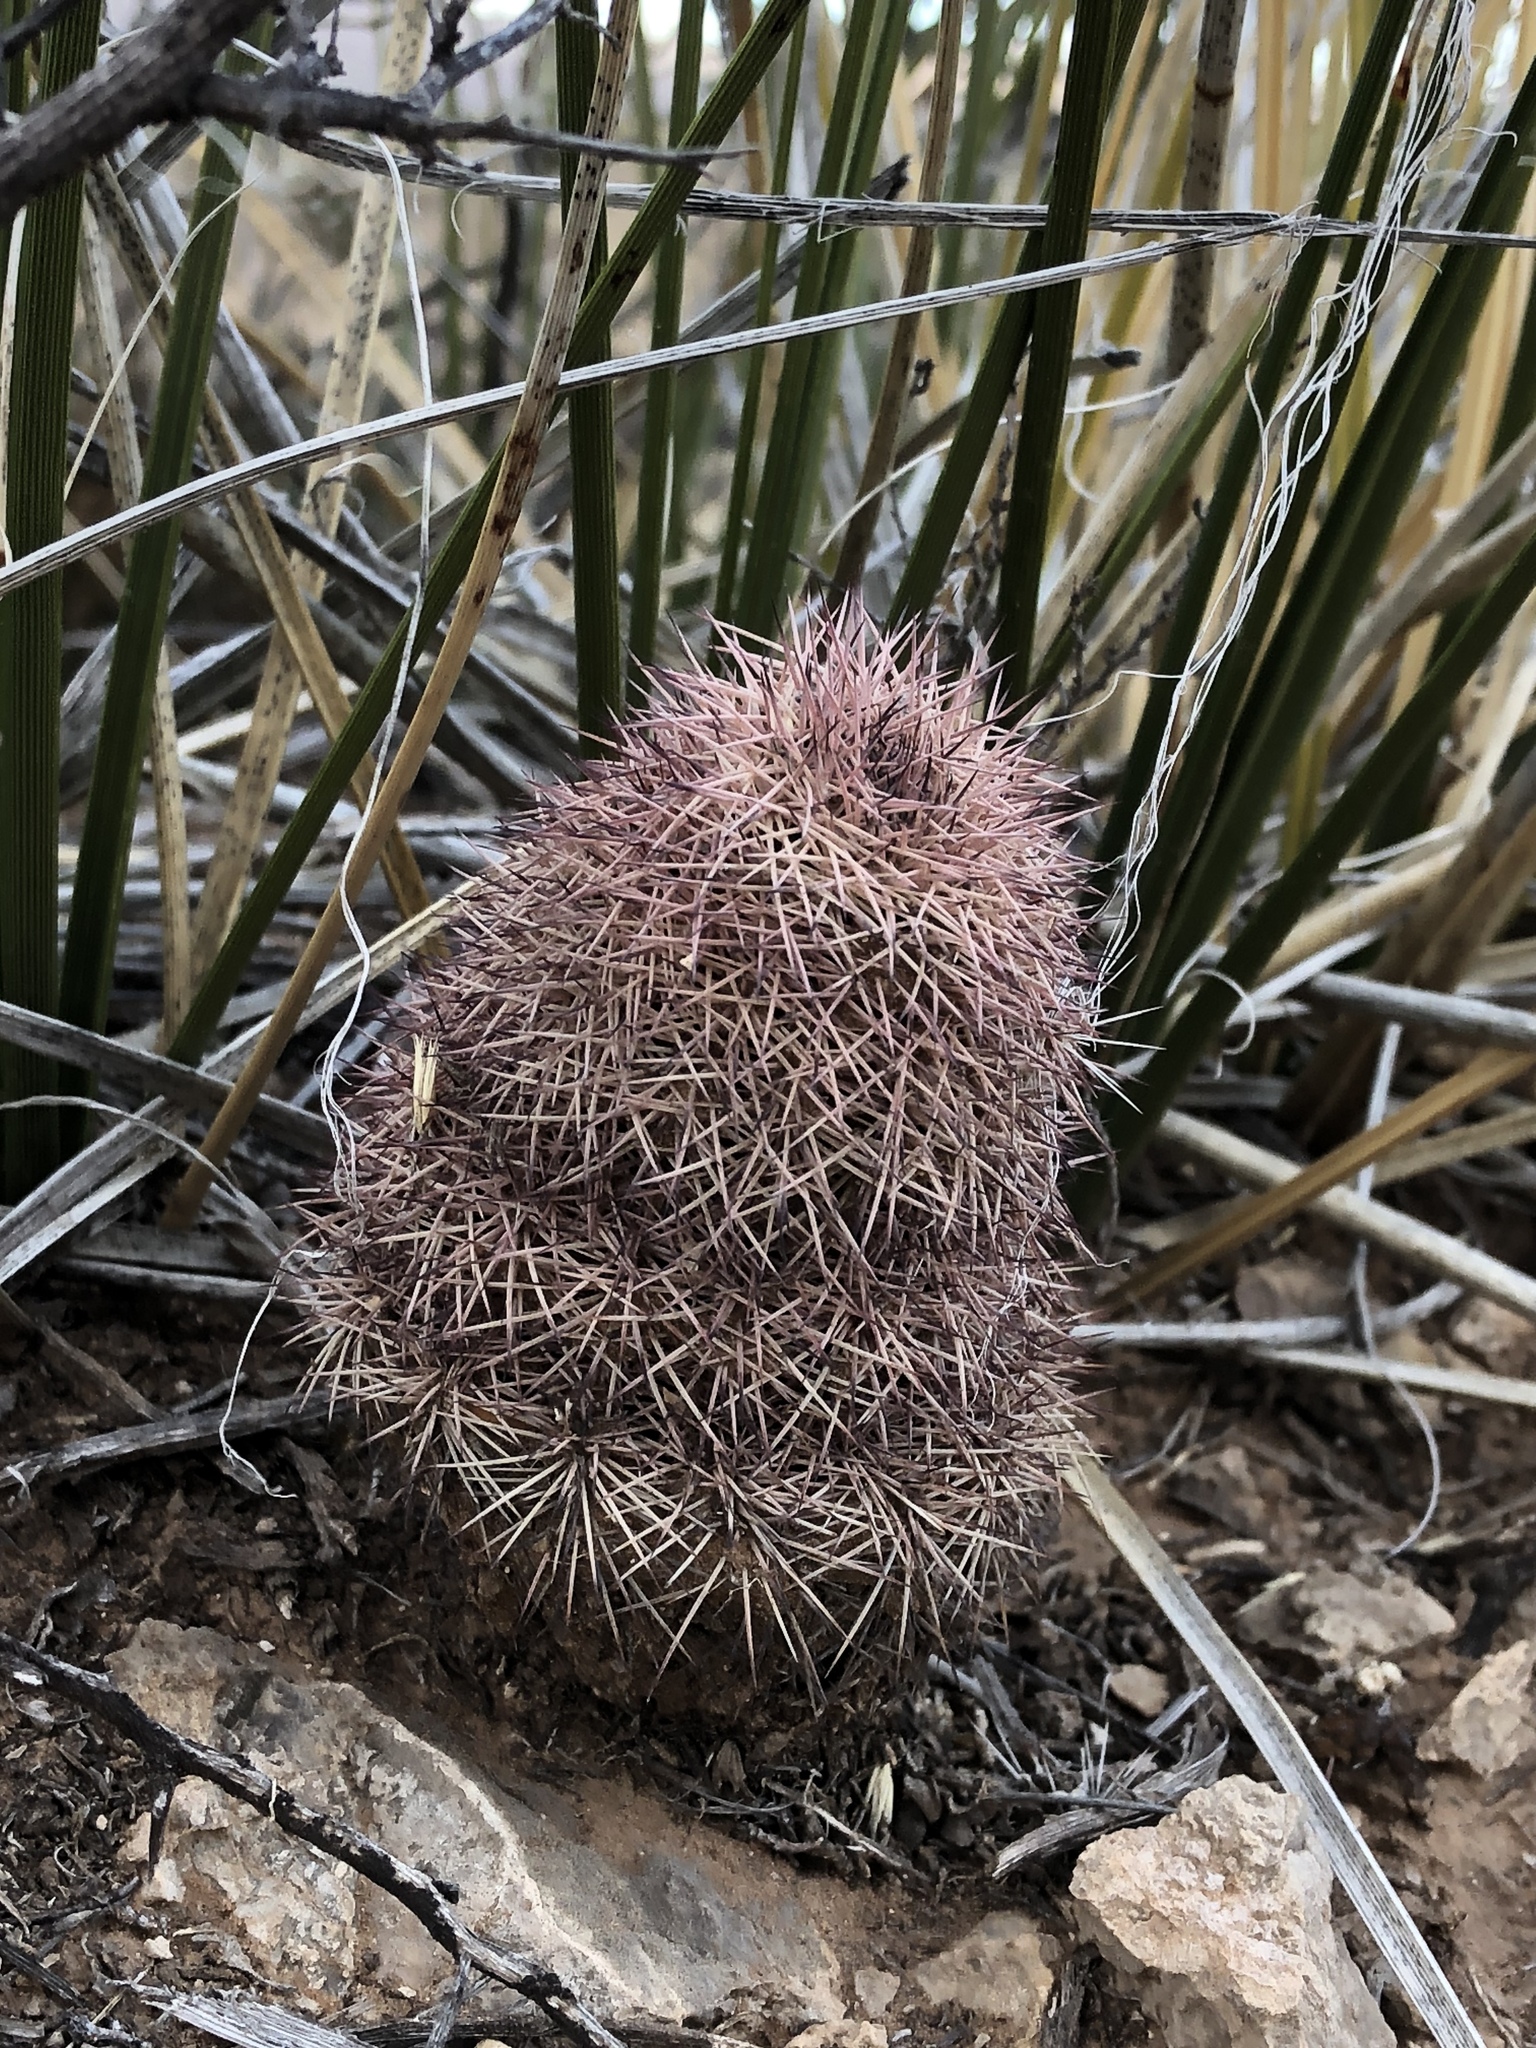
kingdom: Plantae
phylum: Tracheophyta
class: Magnoliopsida
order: Caryophyllales
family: Cactaceae
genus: Echinocereus
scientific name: Echinocereus dasyacanthus
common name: Spiny hedgehog cactus
